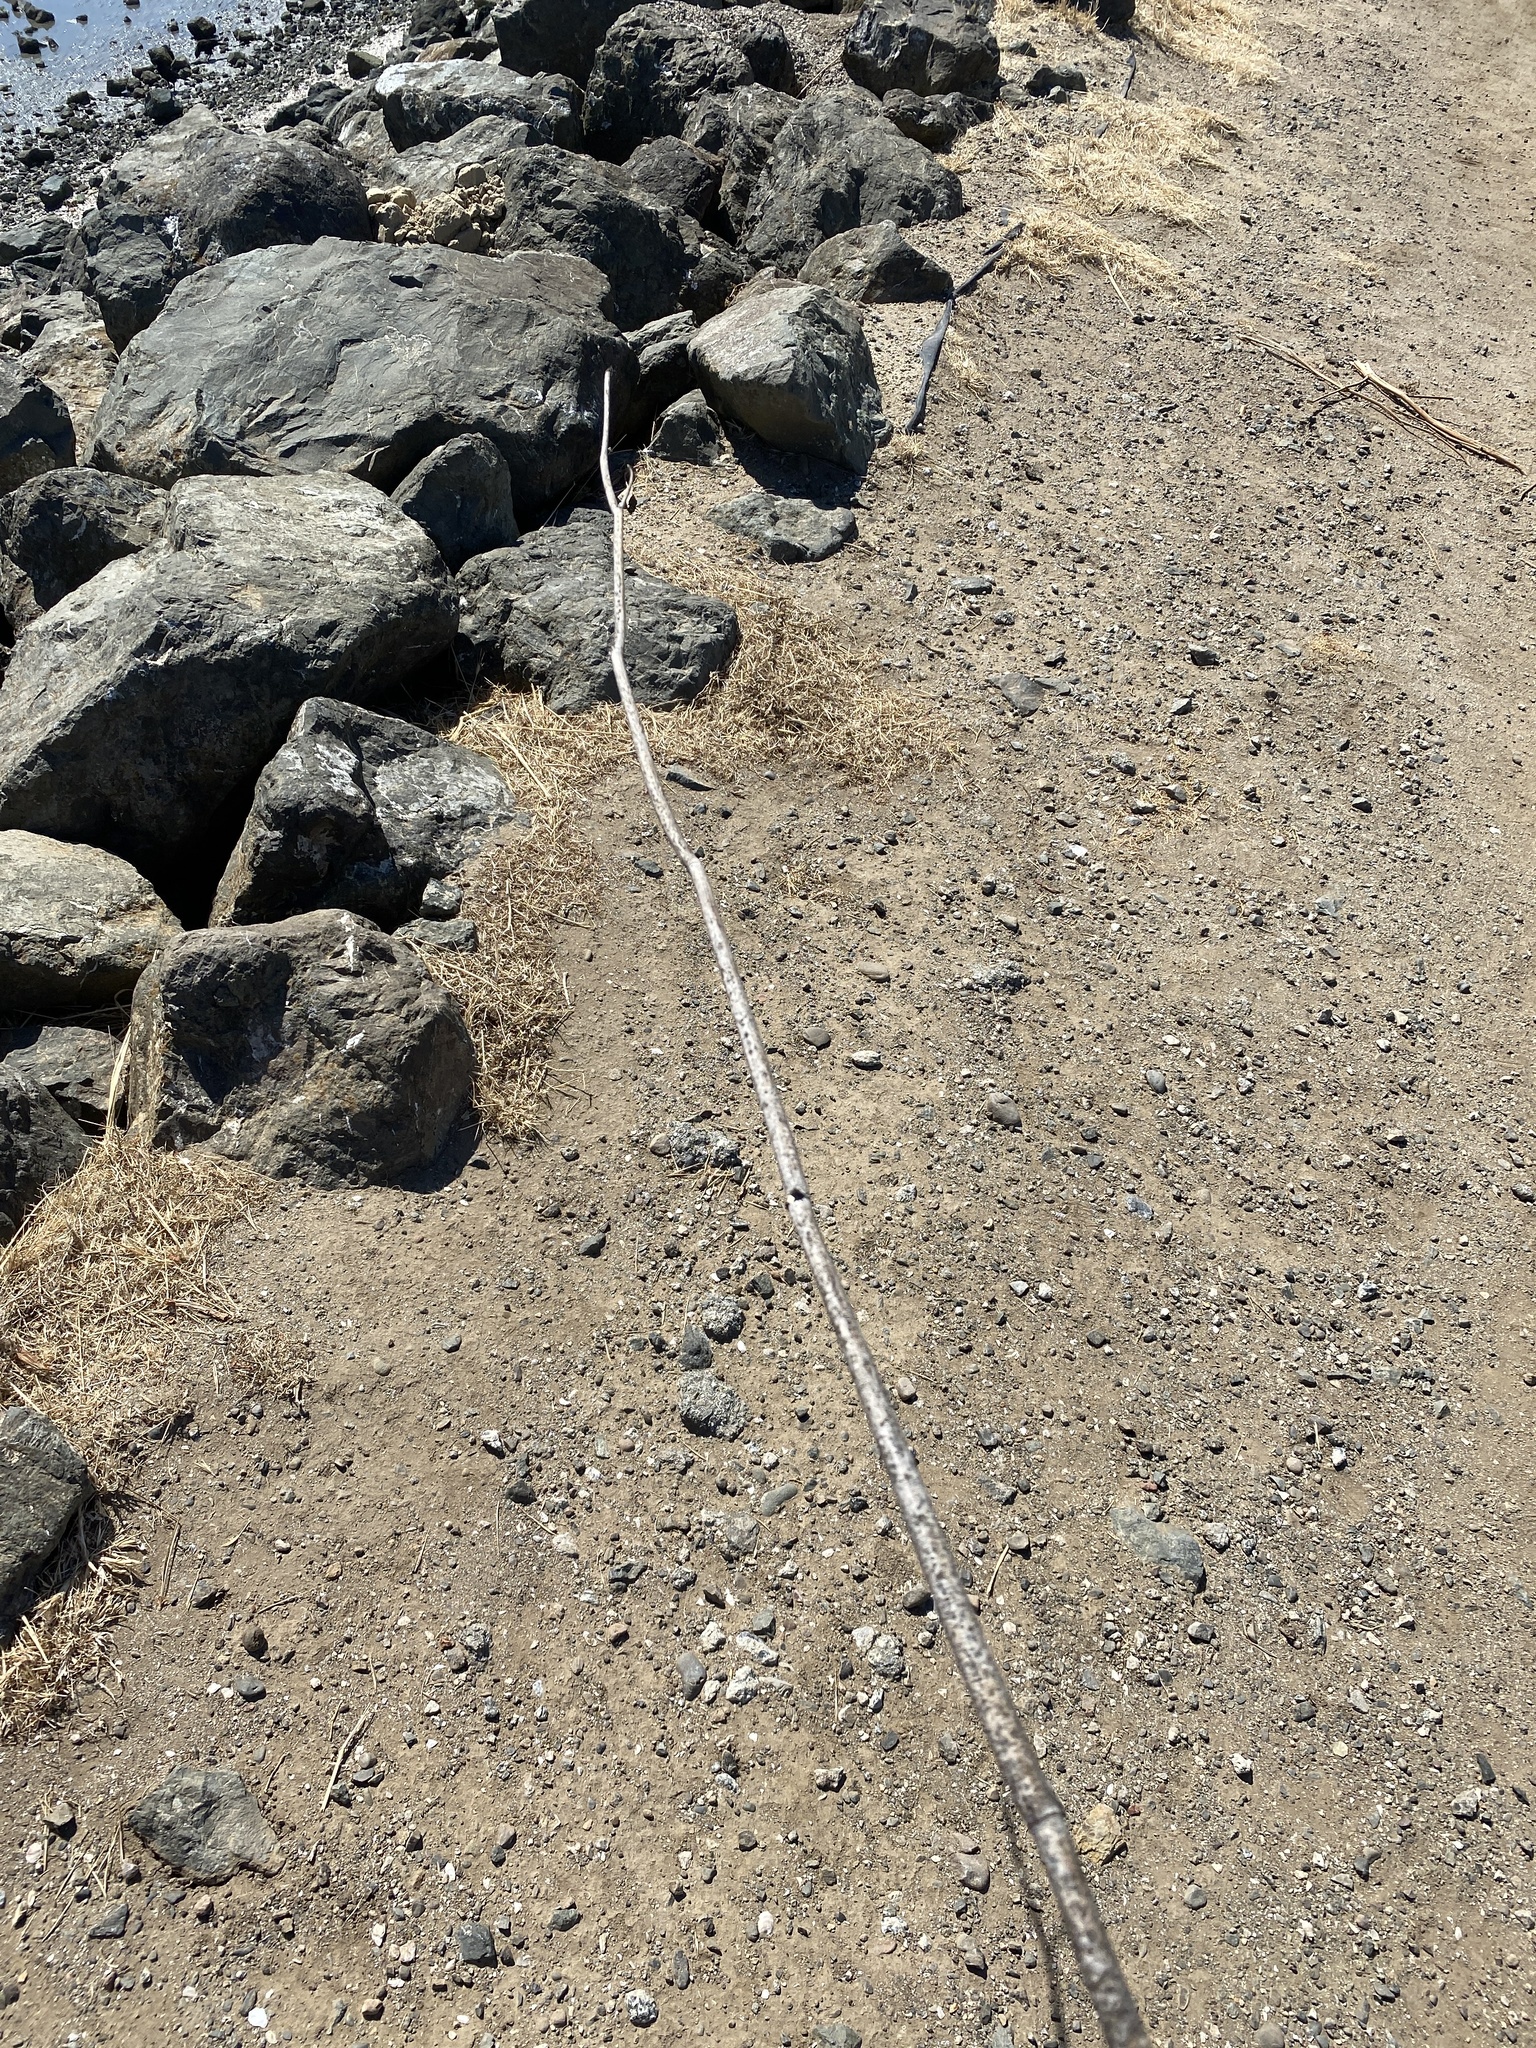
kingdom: Plantae
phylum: Tracheophyta
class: Magnoliopsida
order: Apiales
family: Apiaceae
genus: Foeniculum
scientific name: Foeniculum vulgare
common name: Fennel
